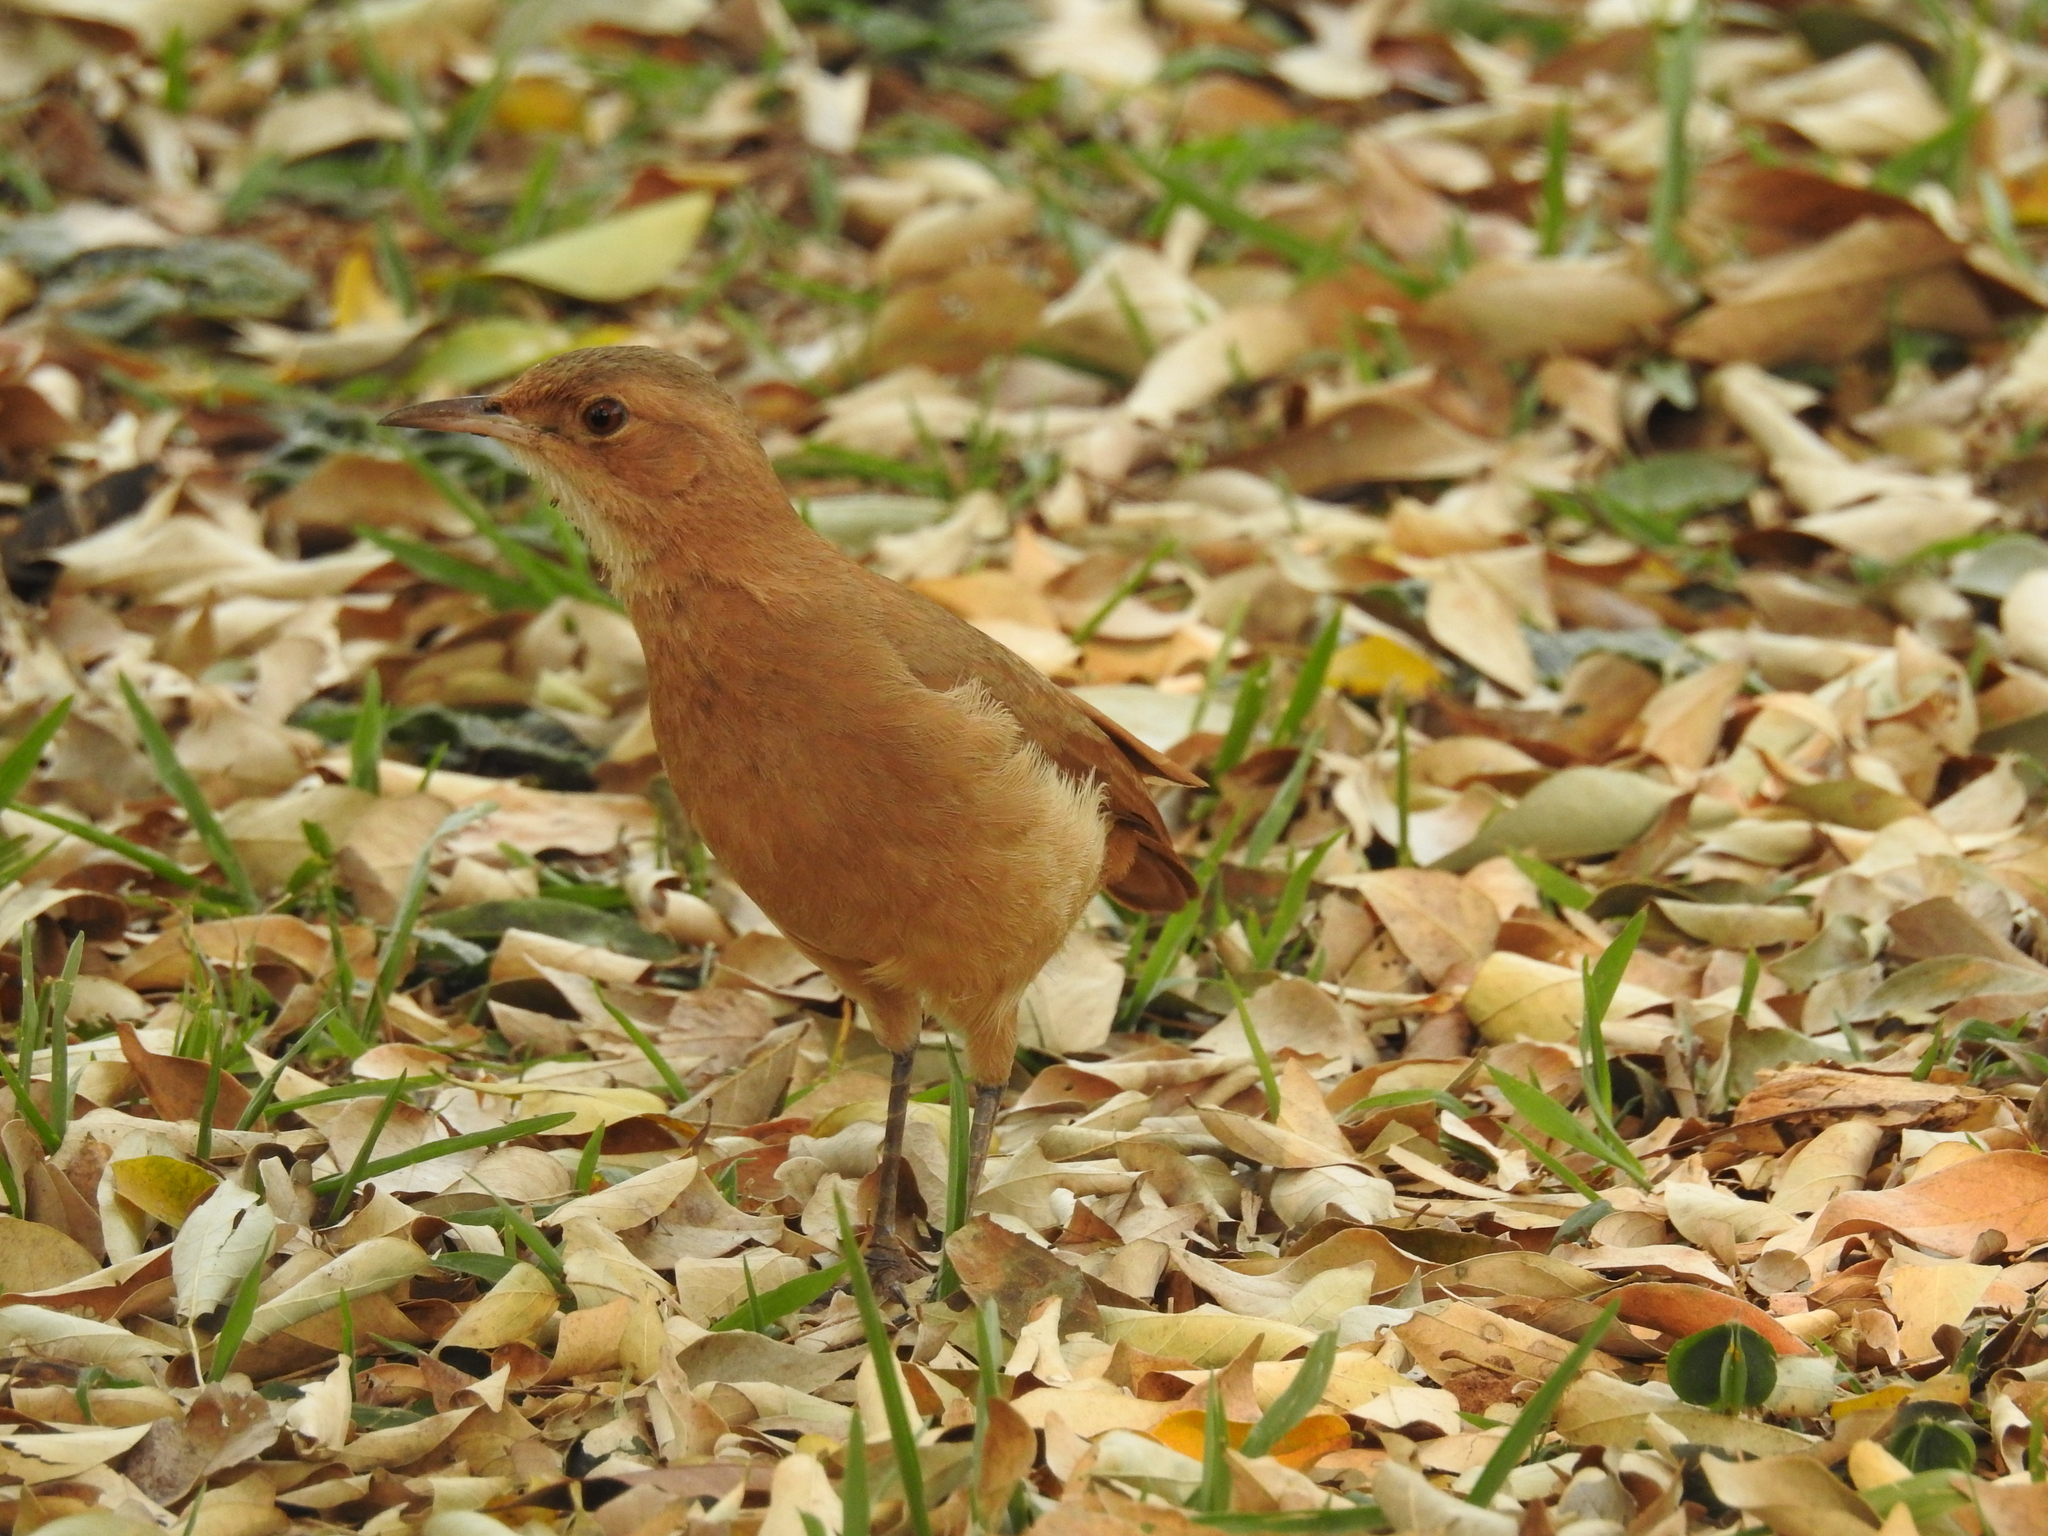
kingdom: Animalia
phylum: Chordata
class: Aves
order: Passeriformes
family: Furnariidae
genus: Furnarius
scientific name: Furnarius rufus
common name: Rufous hornero
